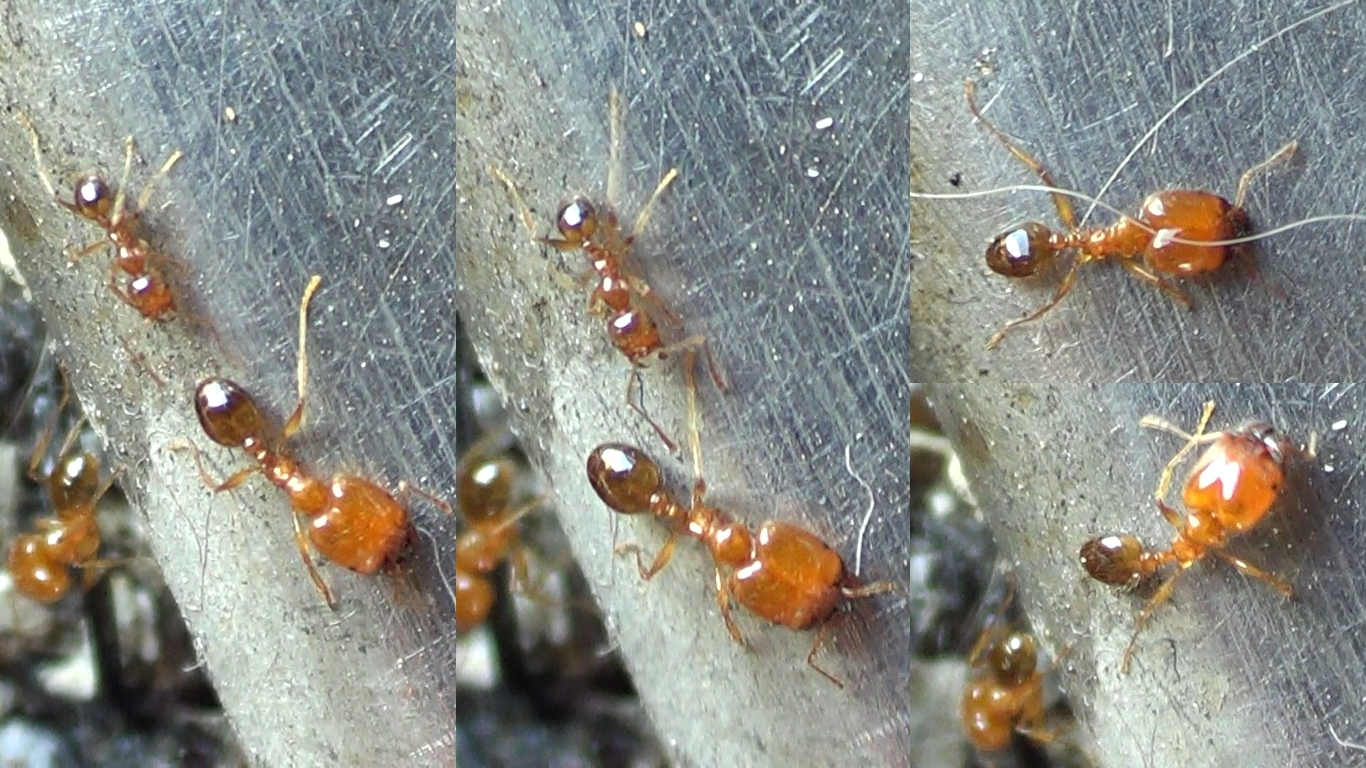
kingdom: Animalia
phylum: Arthropoda
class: Insecta
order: Hymenoptera
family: Formicidae
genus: Pheidole
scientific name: Pheidole pallidula
